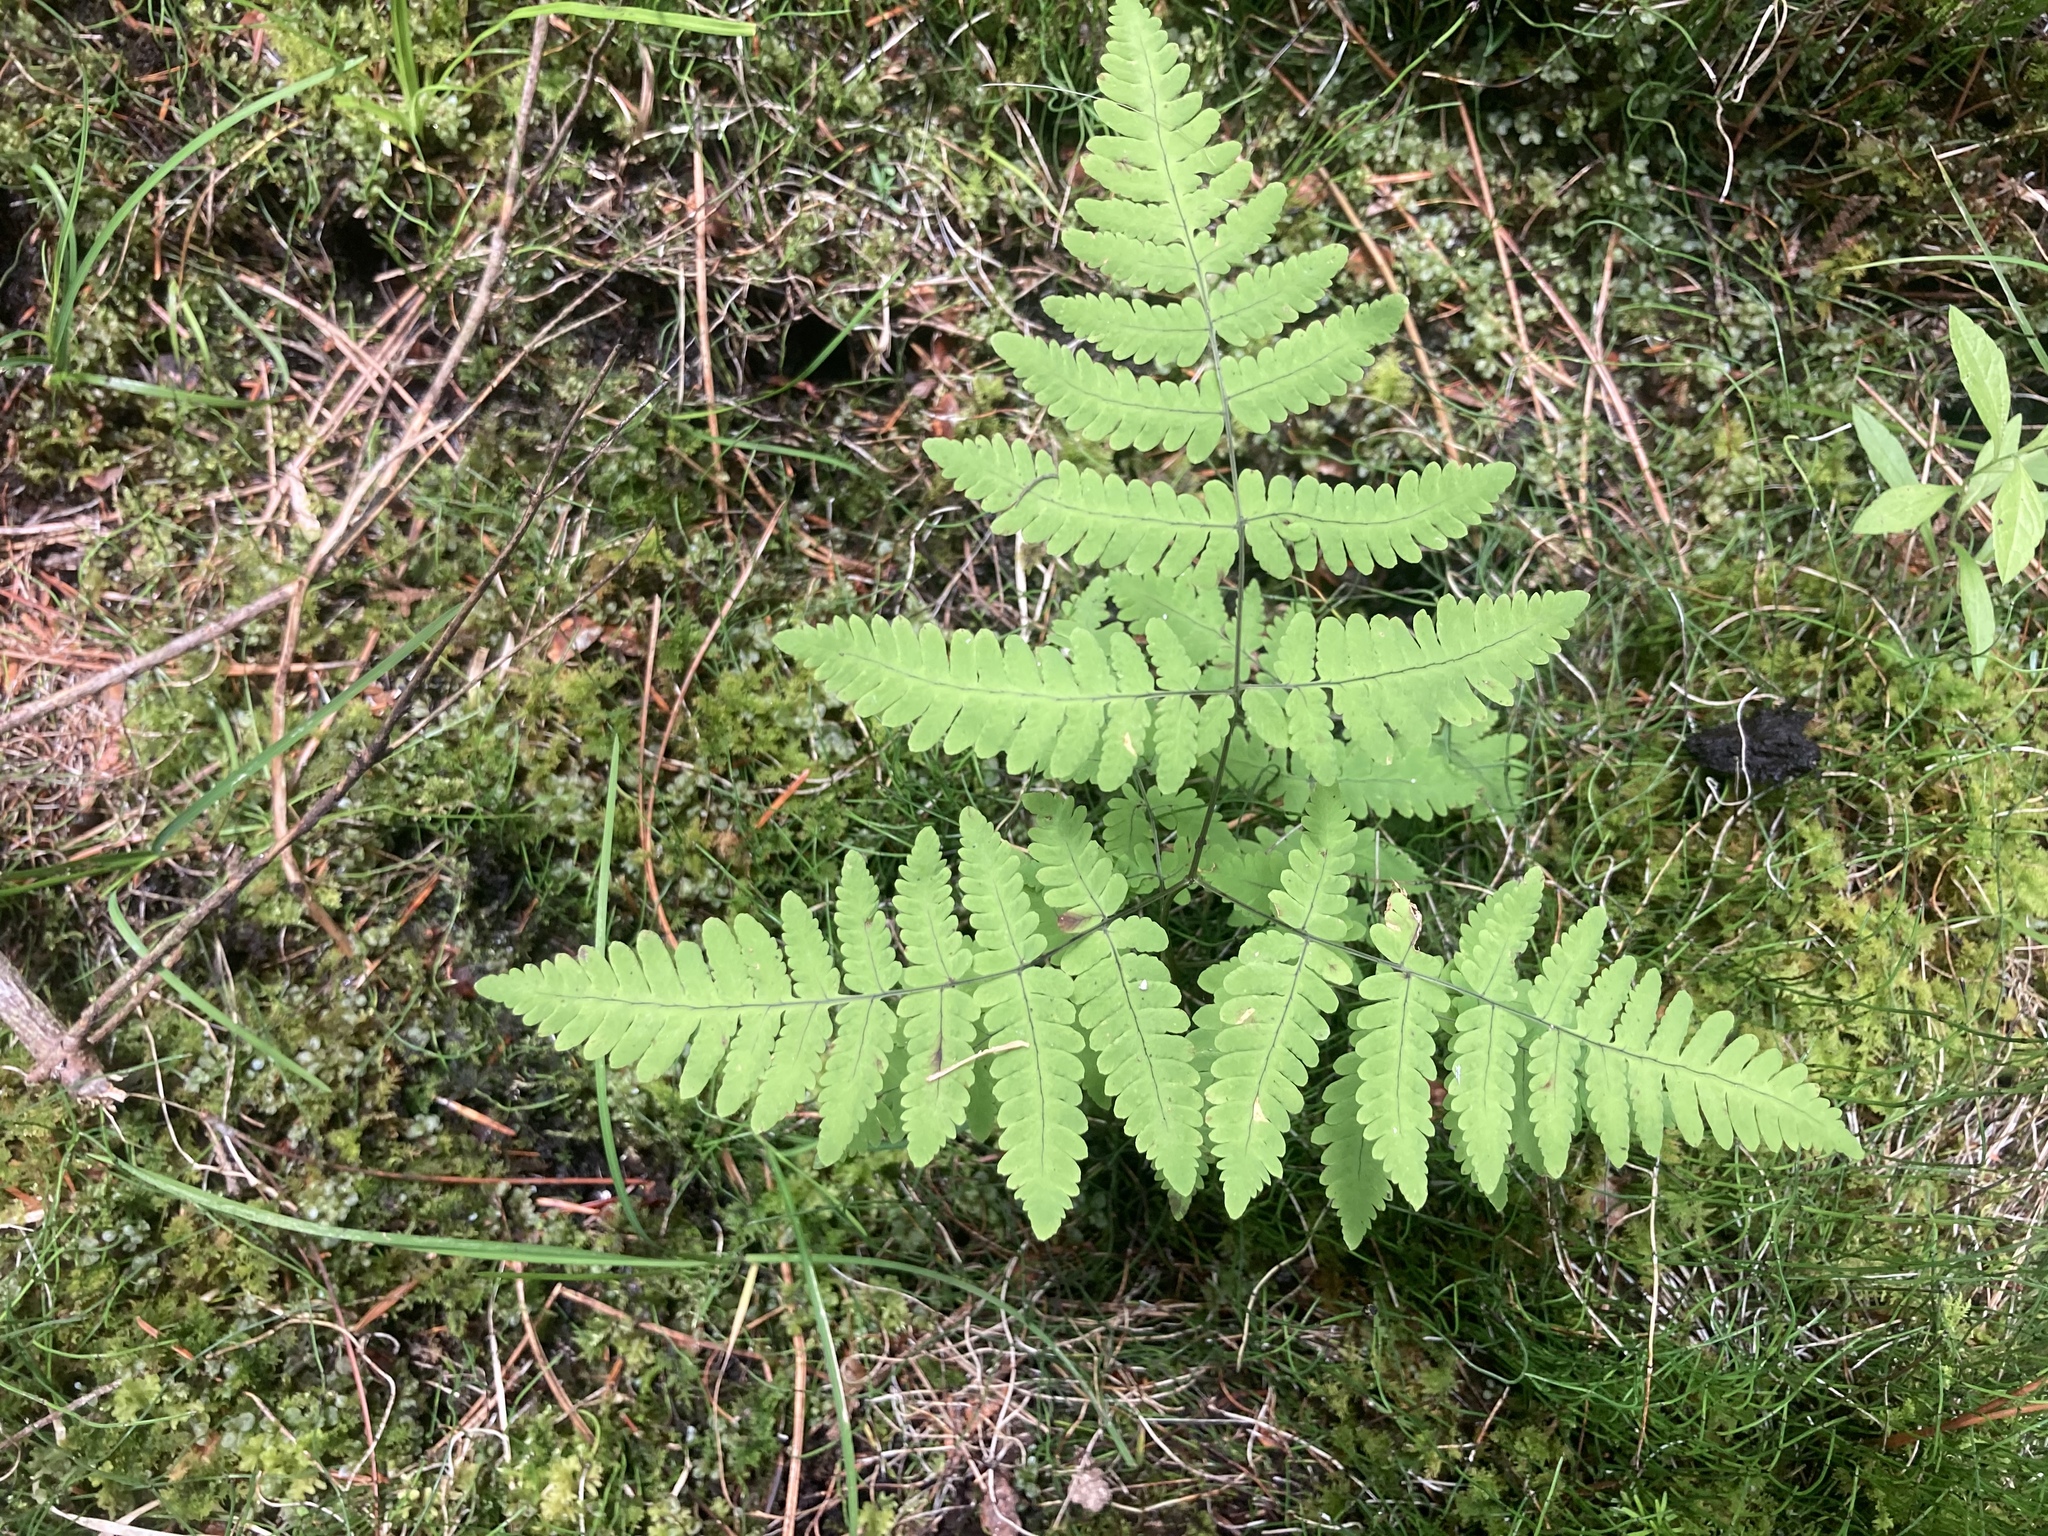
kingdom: Plantae
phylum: Tracheophyta
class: Polypodiopsida
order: Polypodiales
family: Cystopteridaceae
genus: Gymnocarpium
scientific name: Gymnocarpium dryopteris
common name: Oak fern
